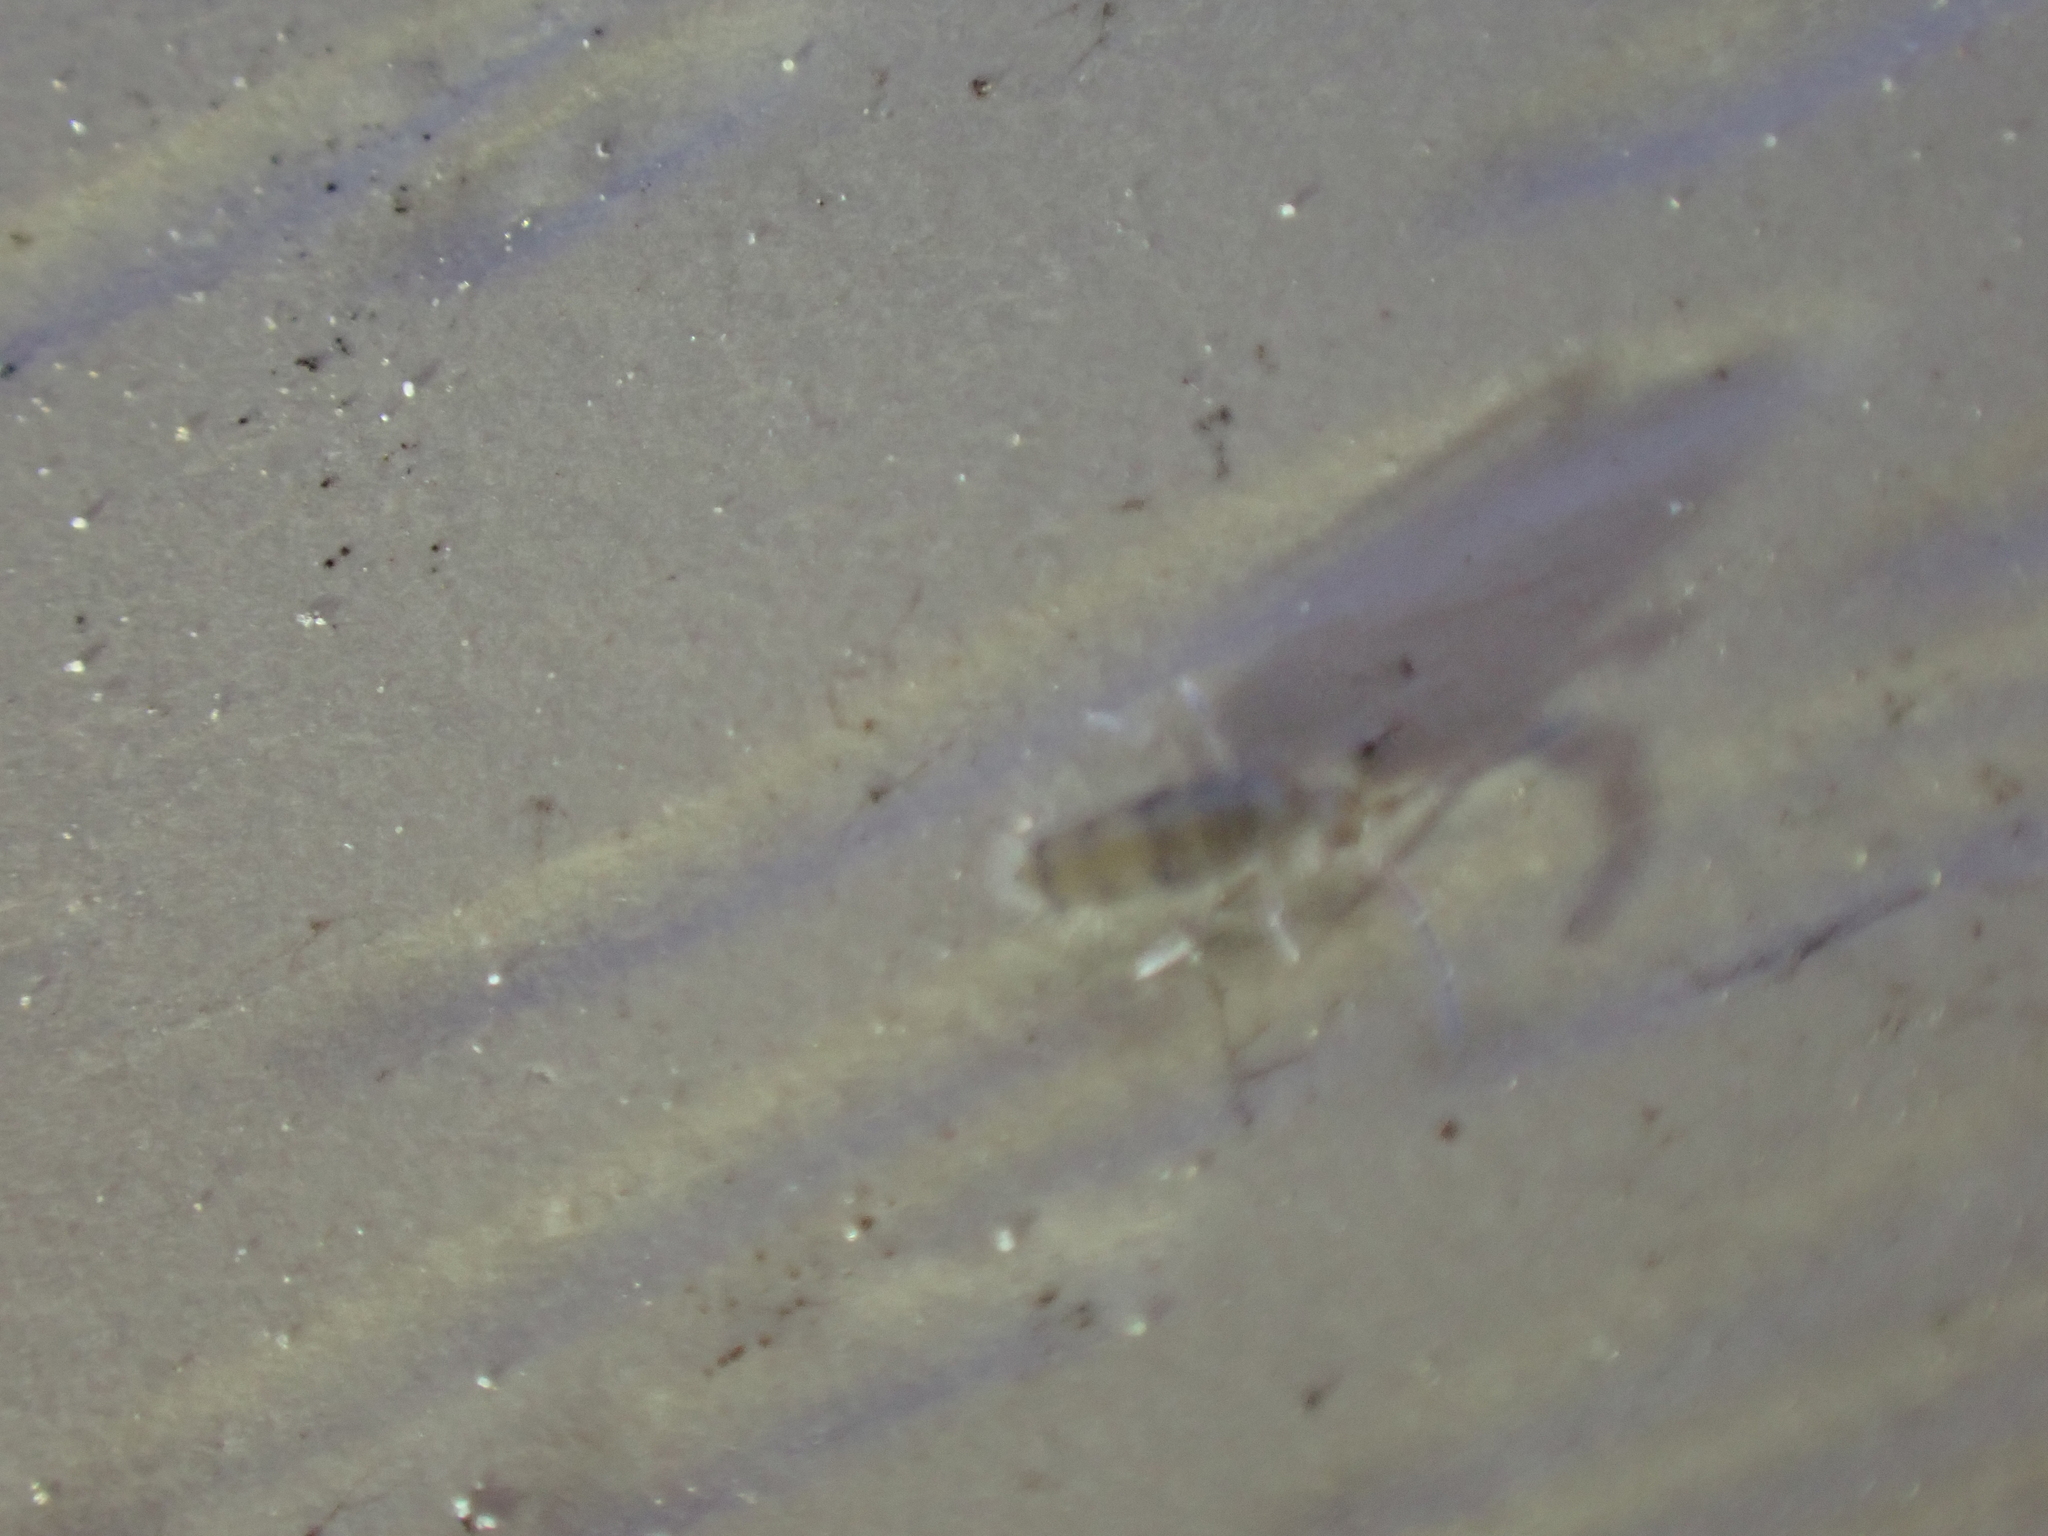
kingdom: Animalia
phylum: Arthropoda
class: Collembola
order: Entomobryomorpha
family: Entomobryidae
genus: Willowsia
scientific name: Willowsia nigromaculata
